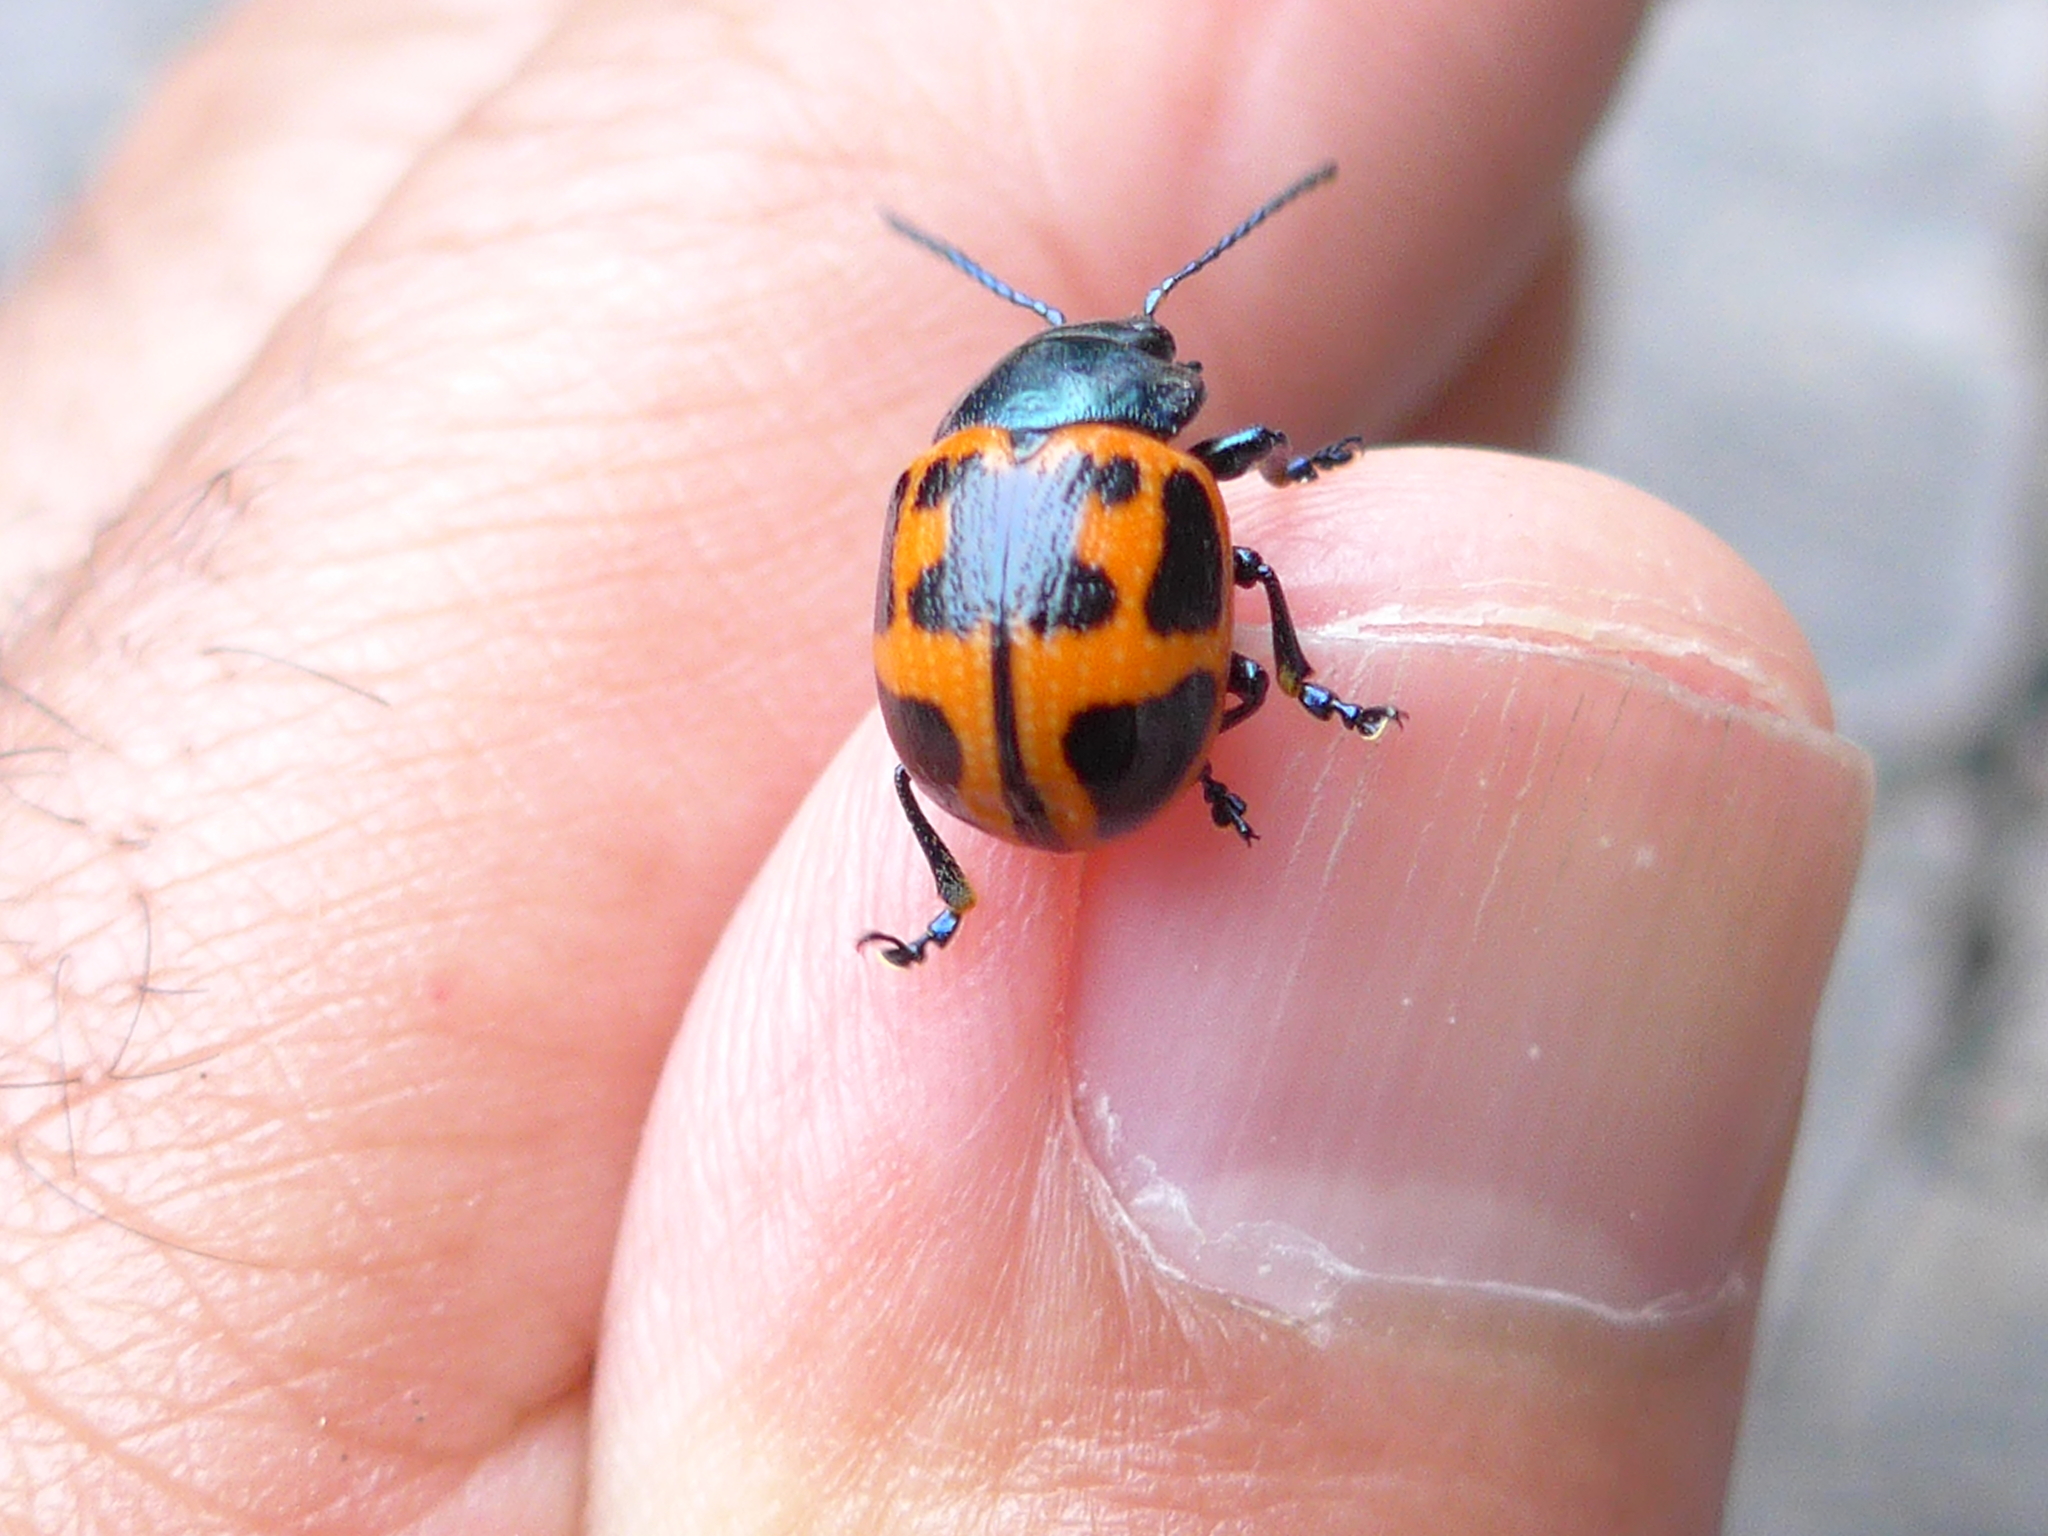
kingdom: Animalia
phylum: Arthropoda
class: Insecta
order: Coleoptera
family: Chrysomelidae
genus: Labidomera
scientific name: Labidomera clivicollis
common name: Swamp milkweed leaf beetle
